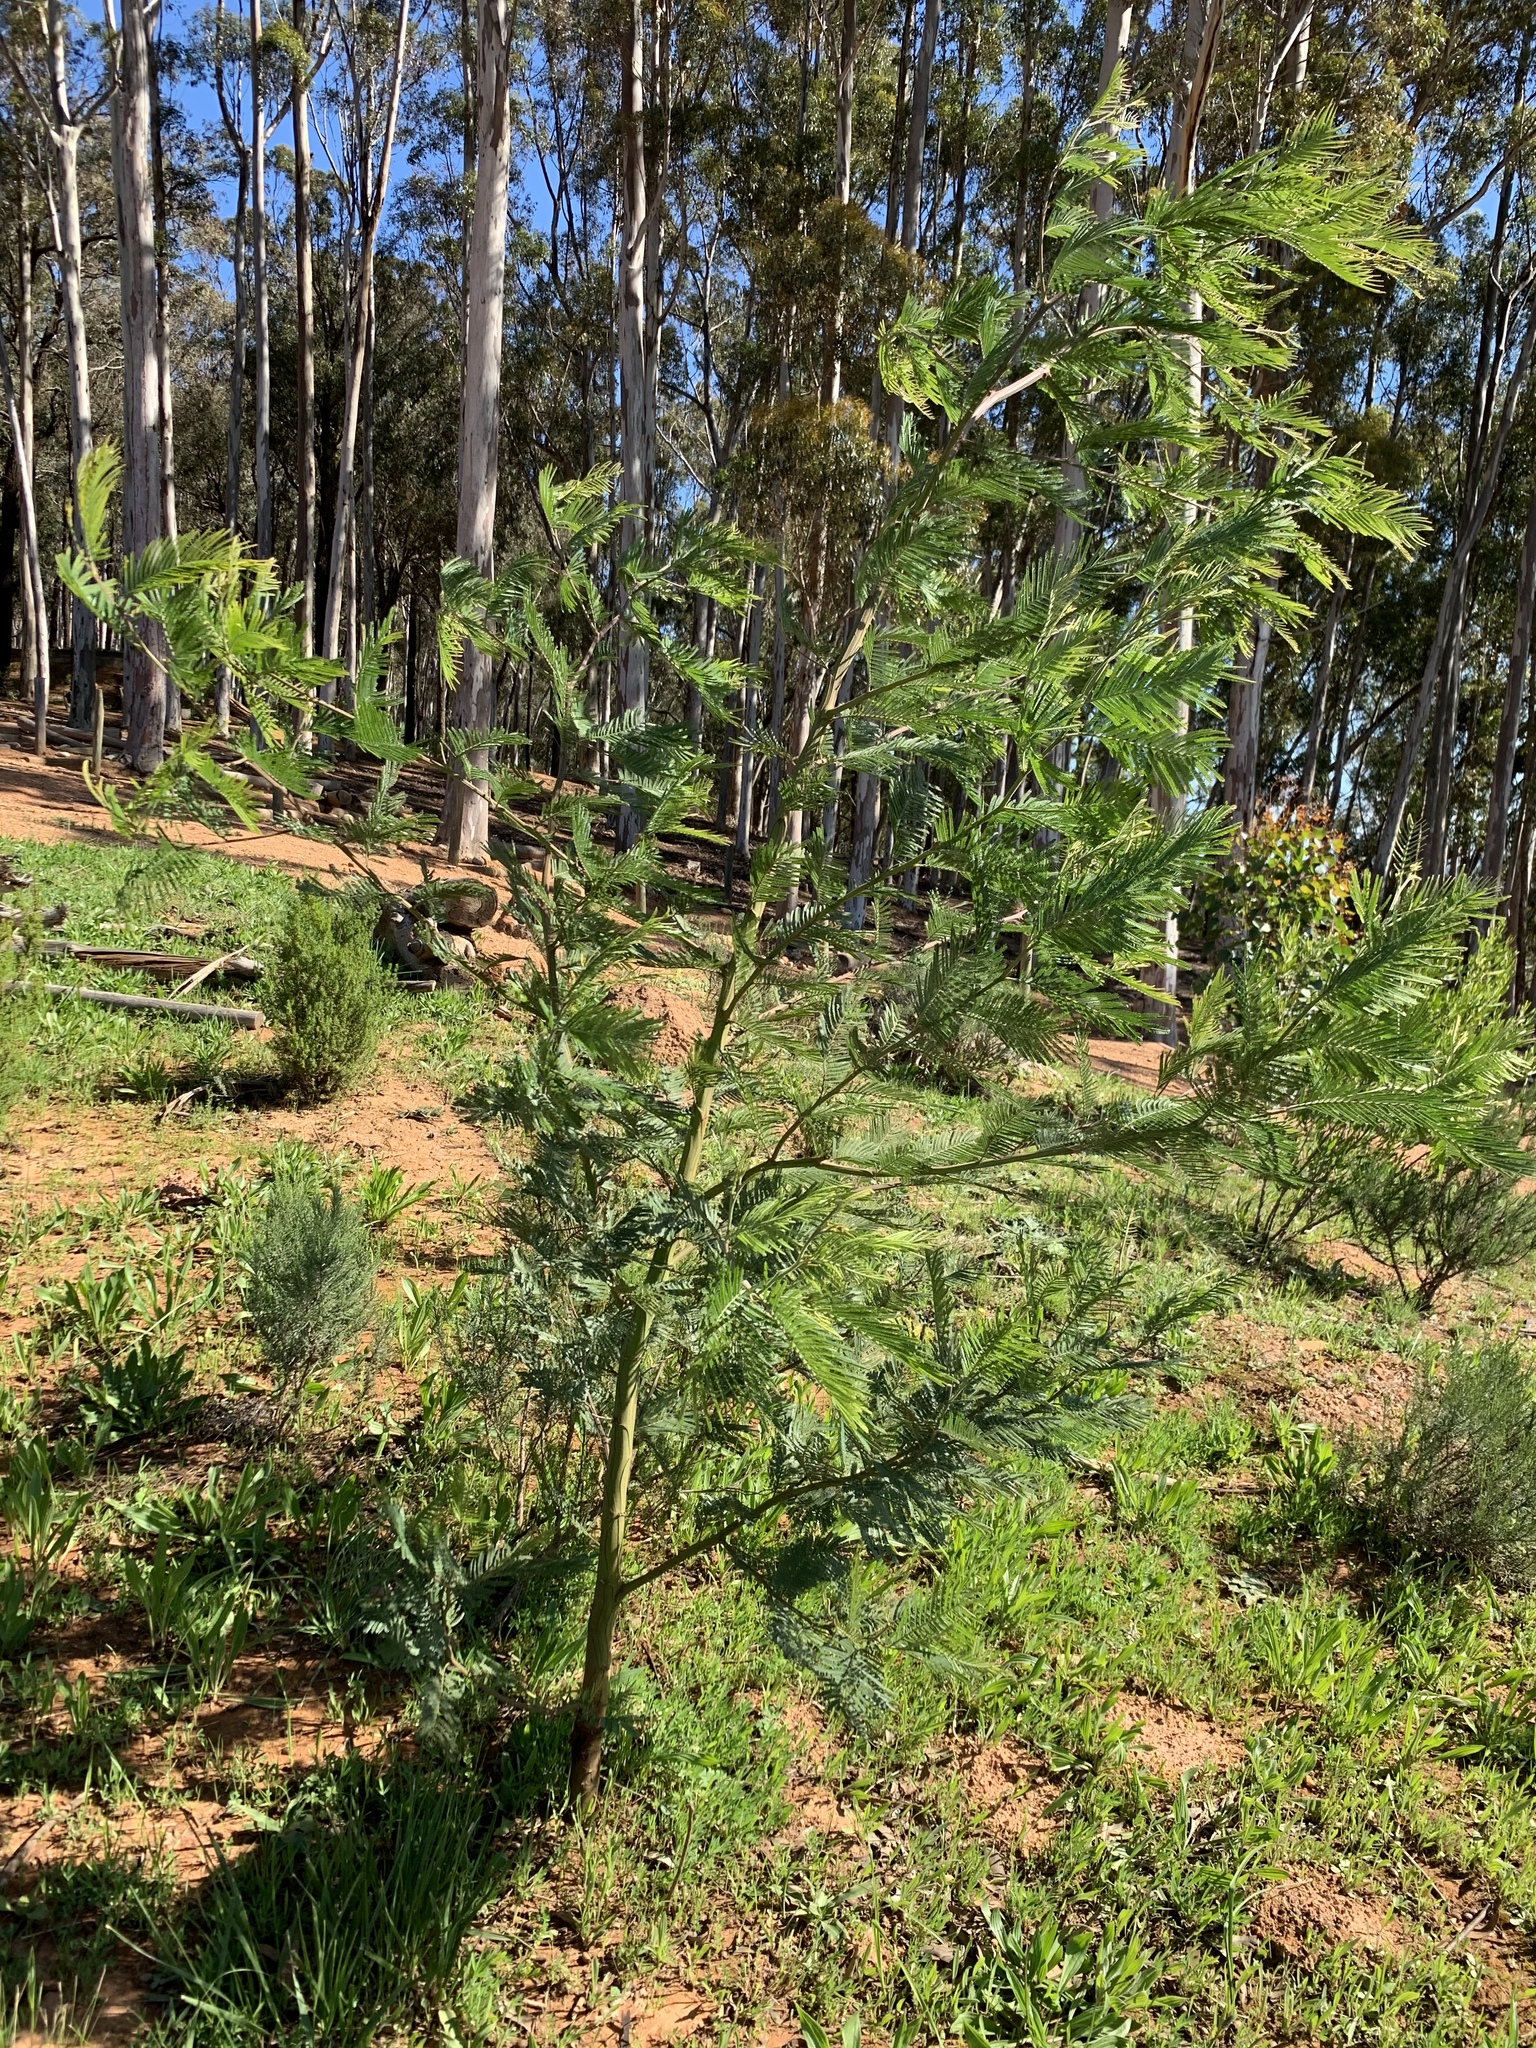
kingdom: Plantae
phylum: Tracheophyta
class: Magnoliopsida
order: Fabales
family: Fabaceae
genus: Acacia
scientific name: Acacia mearnsii
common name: Black wattle
